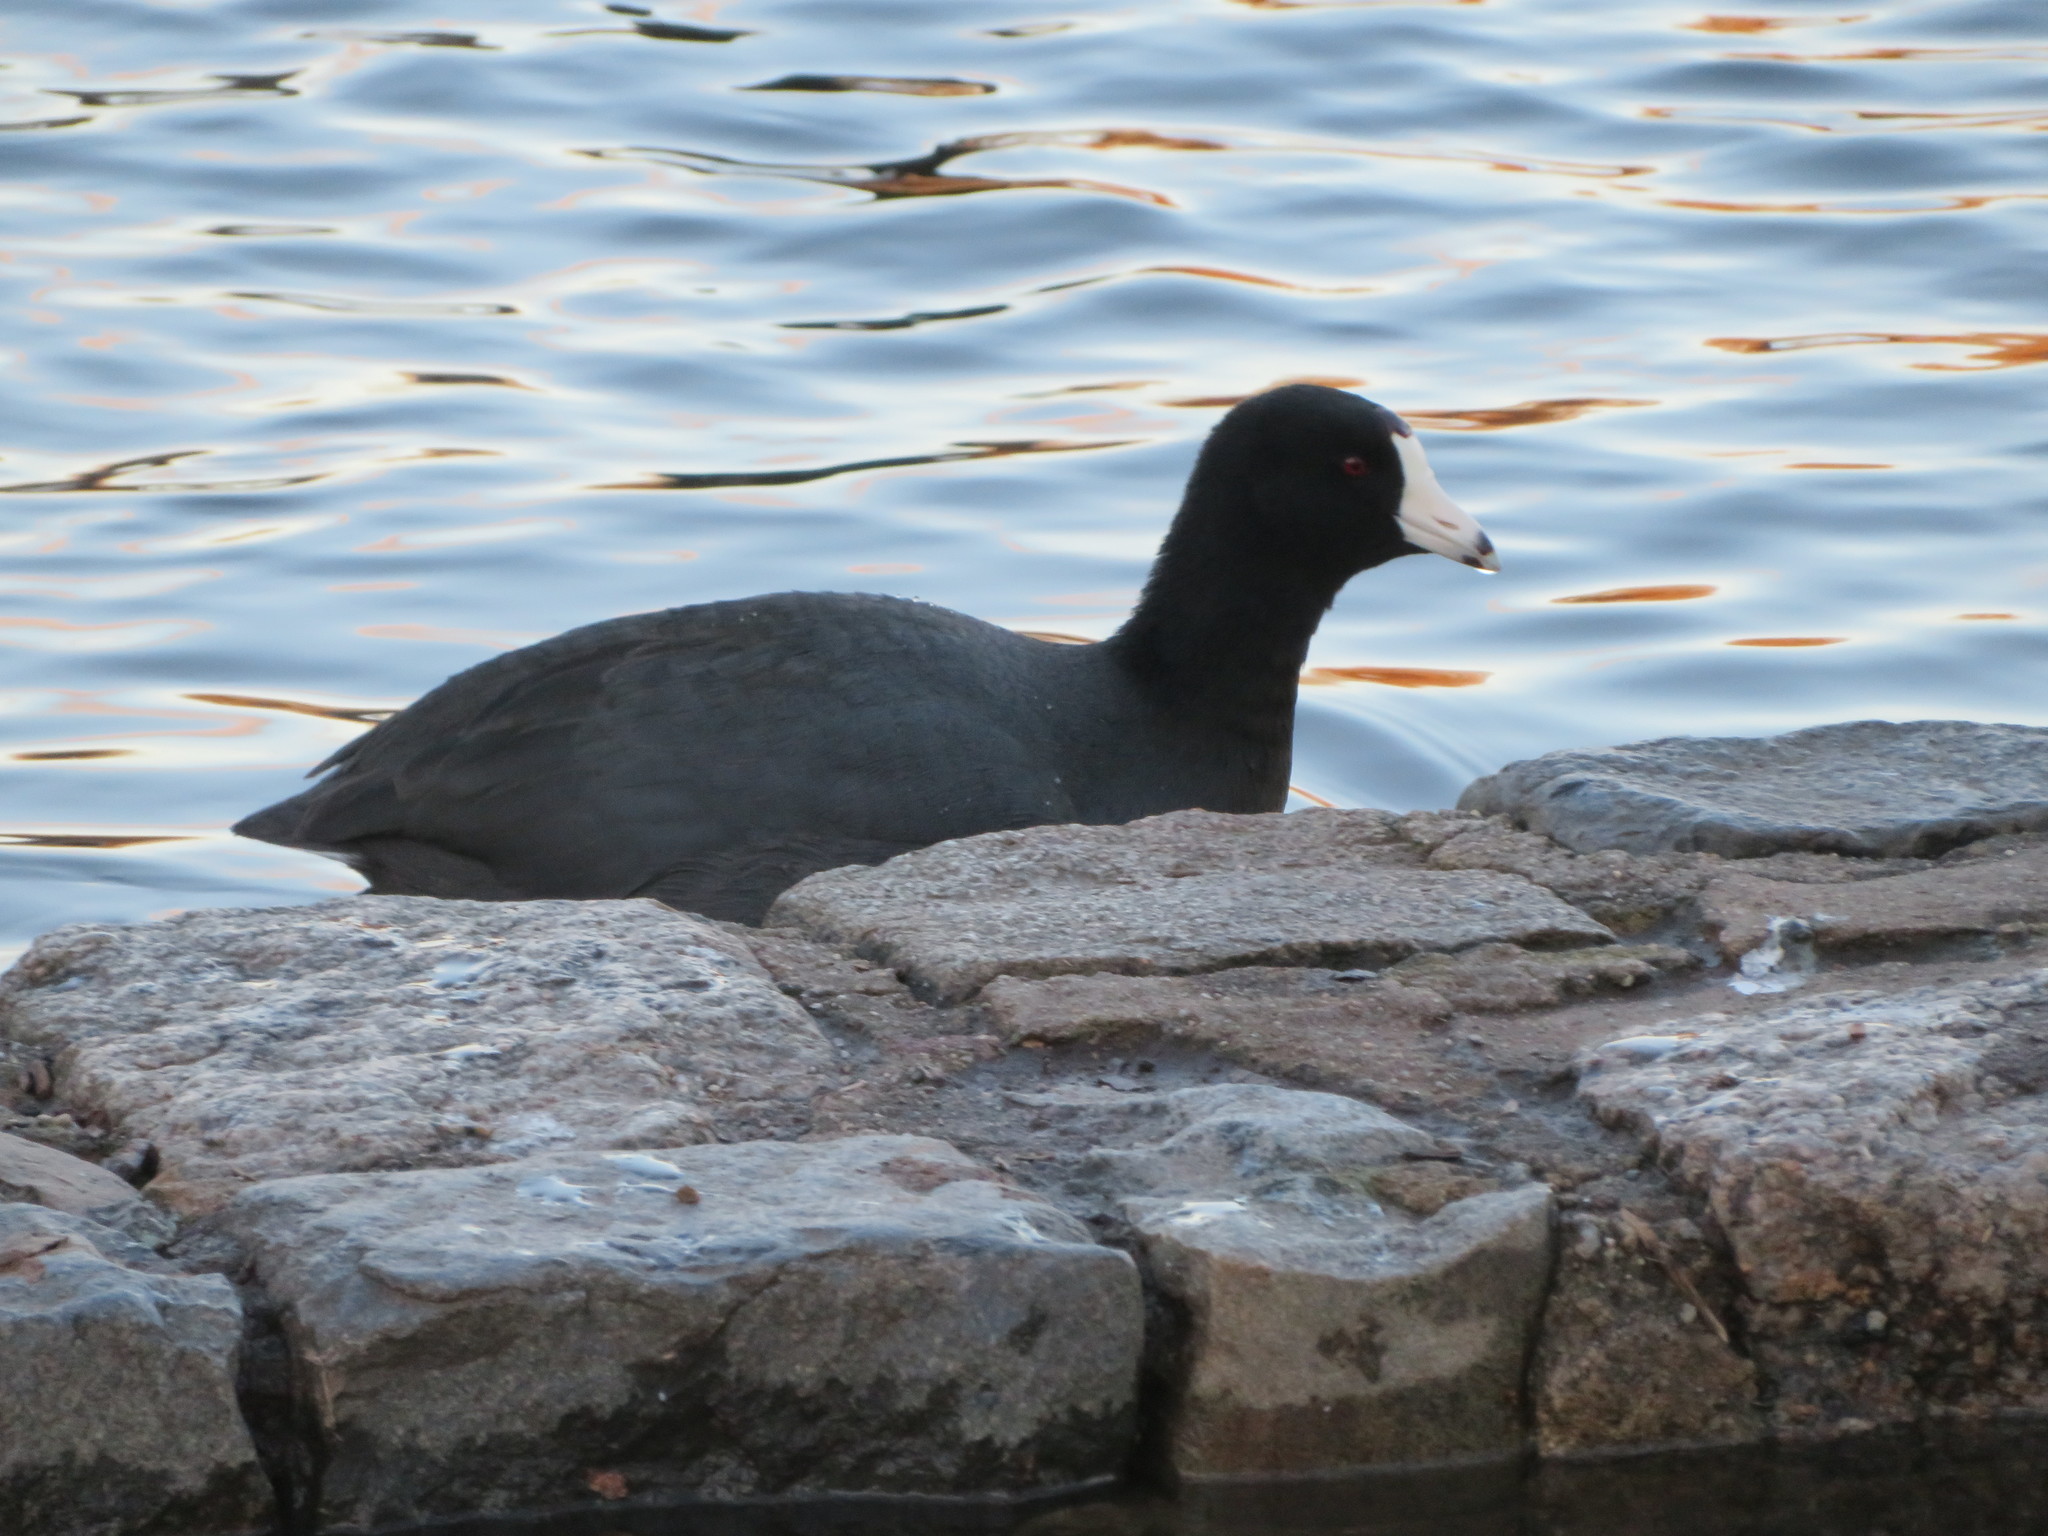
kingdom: Animalia
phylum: Chordata
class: Aves
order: Gruiformes
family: Rallidae
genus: Fulica
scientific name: Fulica americana
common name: American coot
